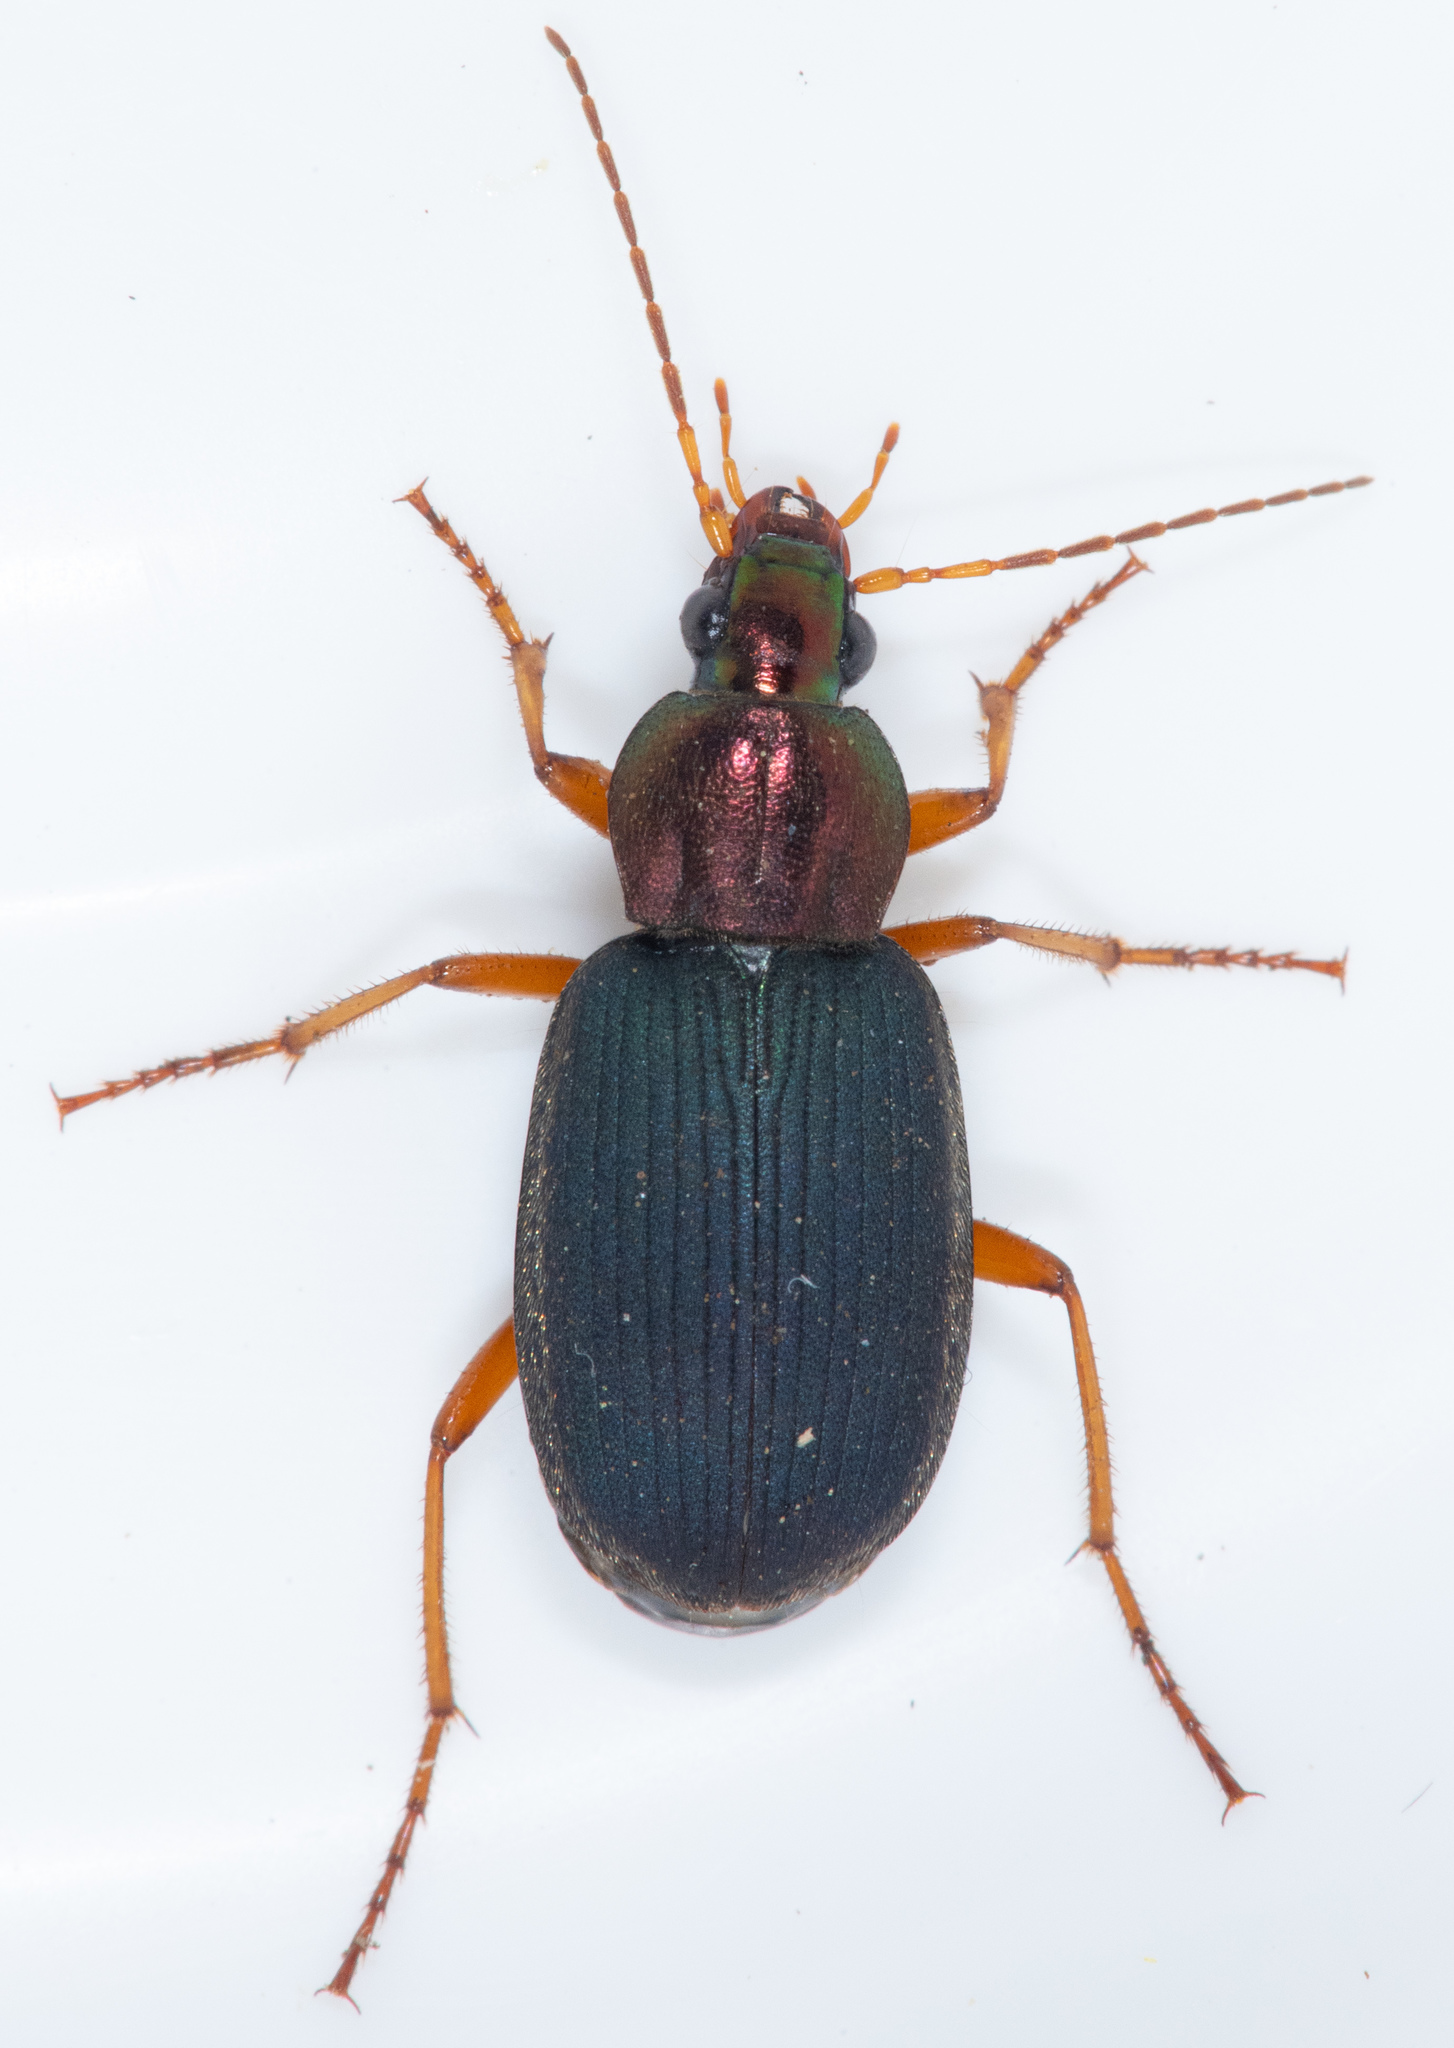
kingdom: Animalia
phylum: Arthropoda
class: Insecta
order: Coleoptera
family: Carabidae
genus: Chlaenius
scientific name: Chlaenius tricolor
